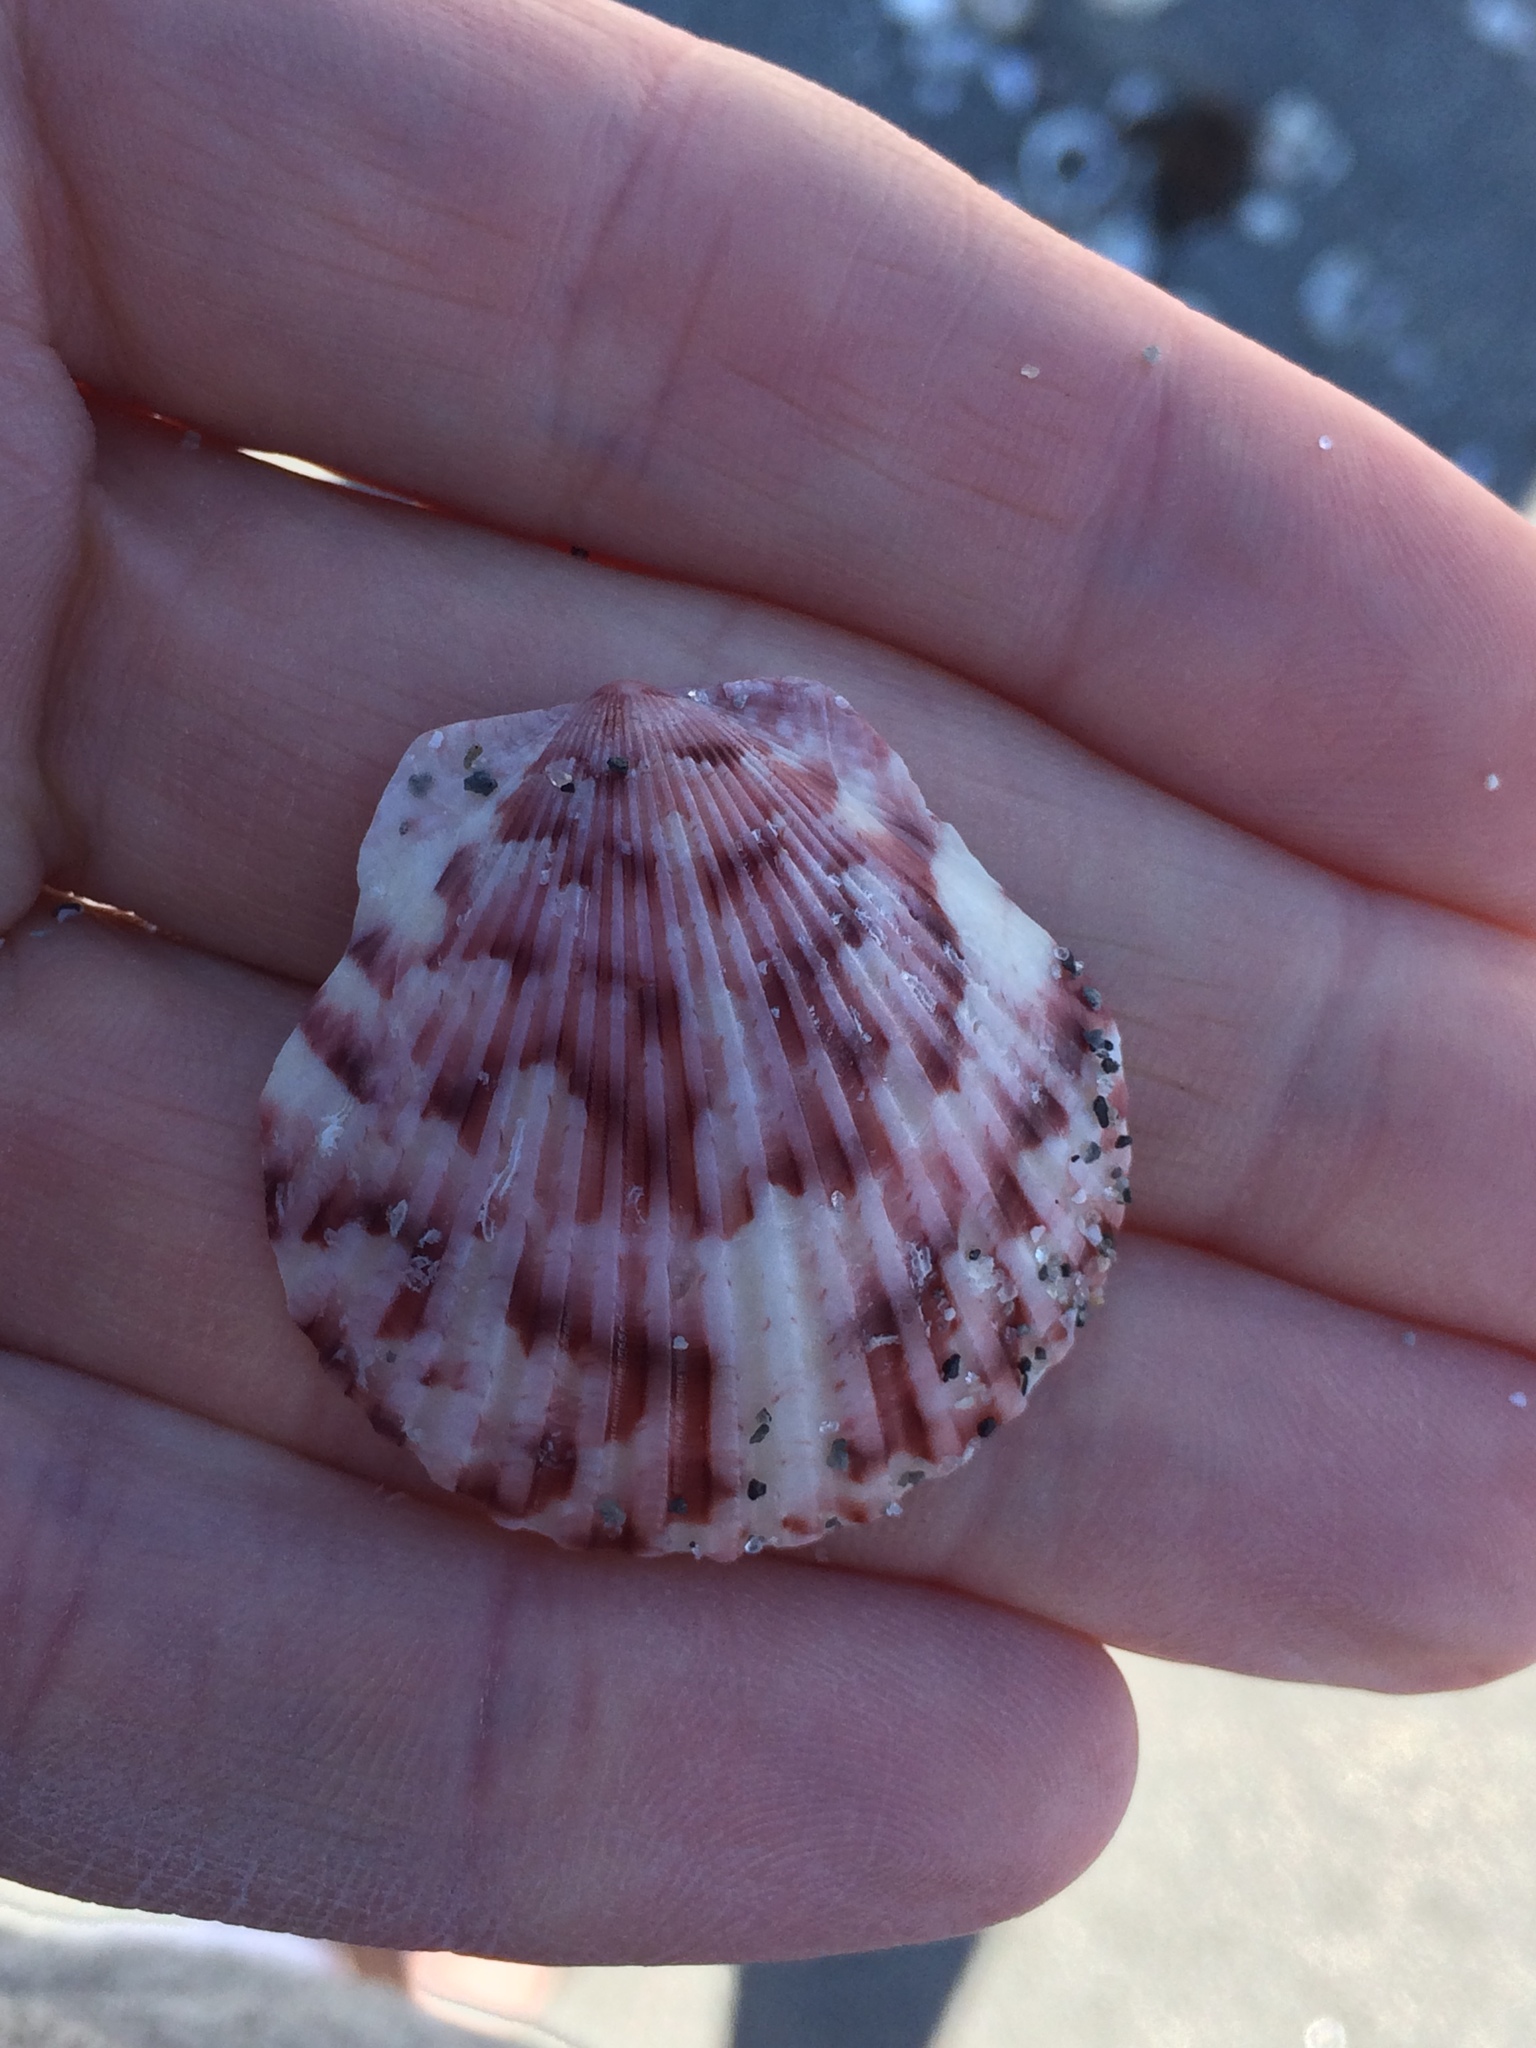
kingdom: Animalia
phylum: Mollusca
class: Bivalvia
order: Pectinida
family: Pectinidae
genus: Argopecten
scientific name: Argopecten gibbus
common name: Atlantic calico scallop
